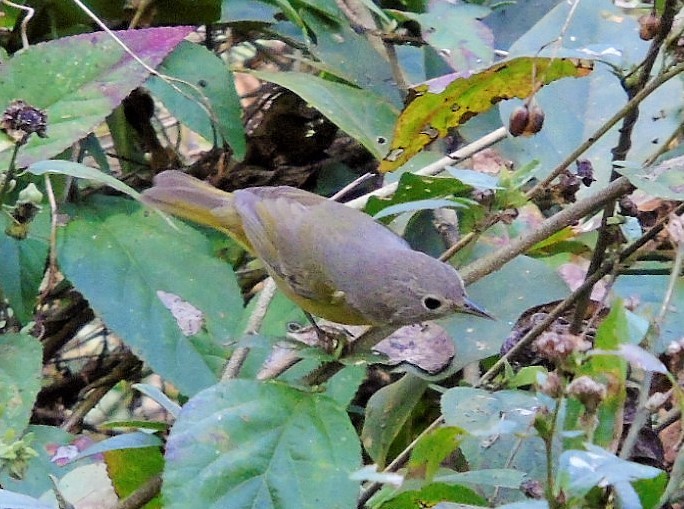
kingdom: Animalia
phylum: Chordata
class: Aves
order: Passeriformes
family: Parulidae
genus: Leiothlypis
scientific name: Leiothlypis ruficapilla
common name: Nashville warbler
